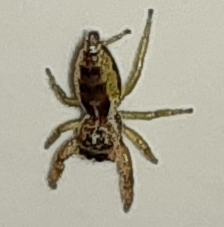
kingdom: Animalia
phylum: Arthropoda
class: Arachnida
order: Araneae
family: Salticidae
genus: Hentzia
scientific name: Hentzia
